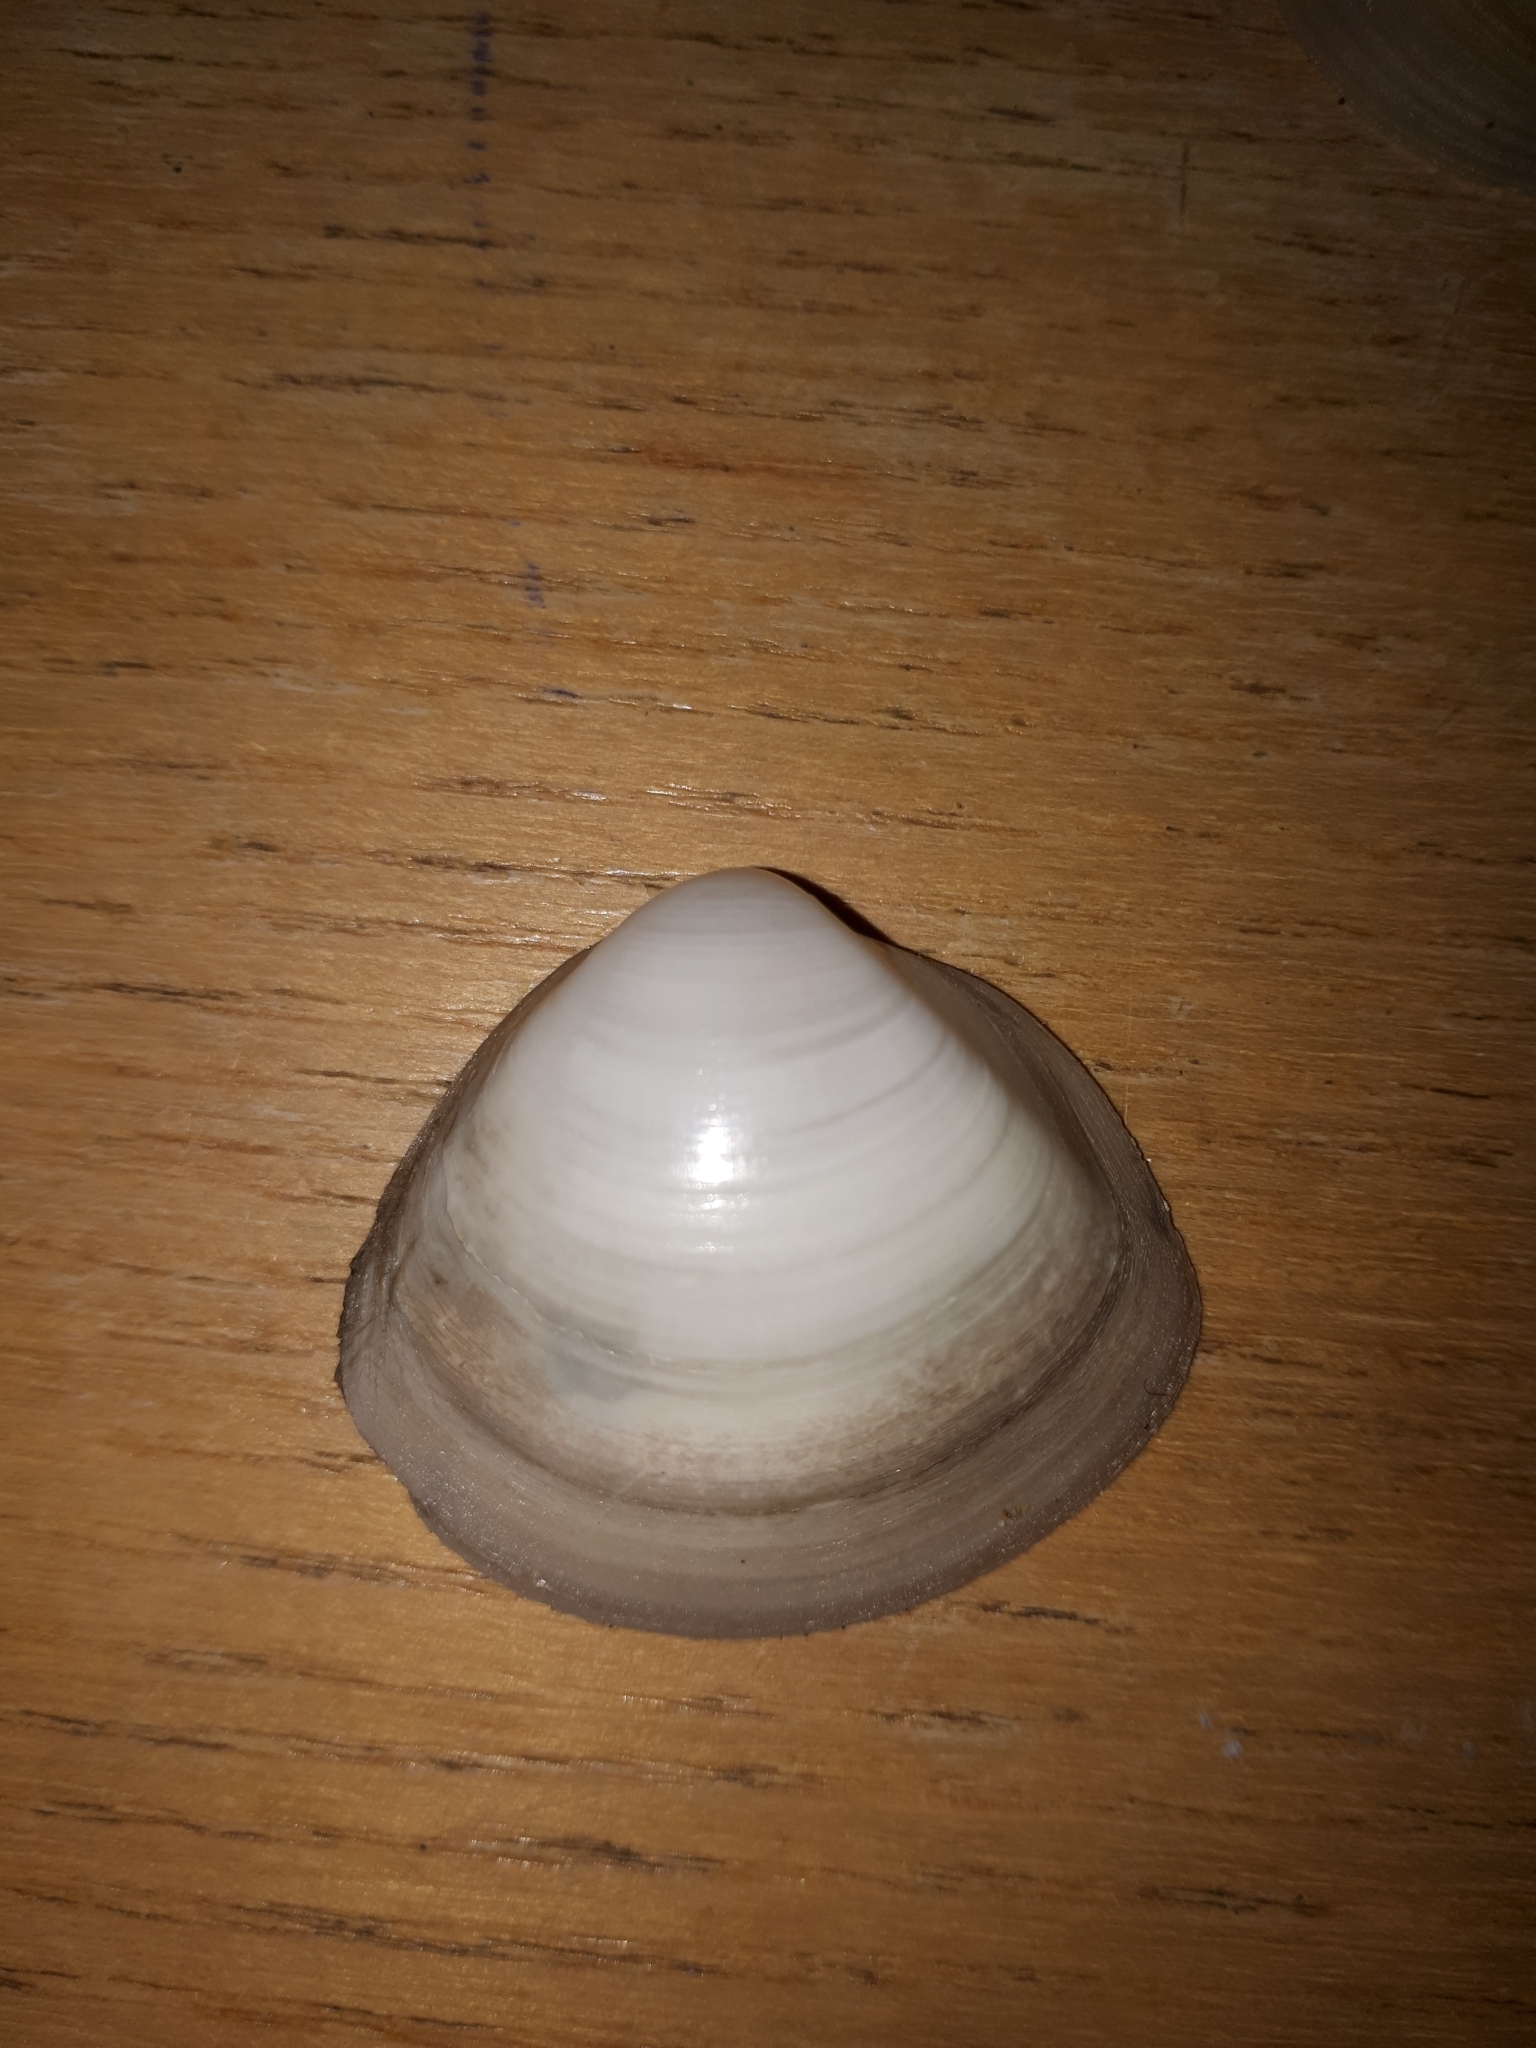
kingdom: Animalia
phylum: Mollusca
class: Bivalvia
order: Venerida
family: Mactridae
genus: Mactra
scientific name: Mactra stultorum
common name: Rayed trough shell
